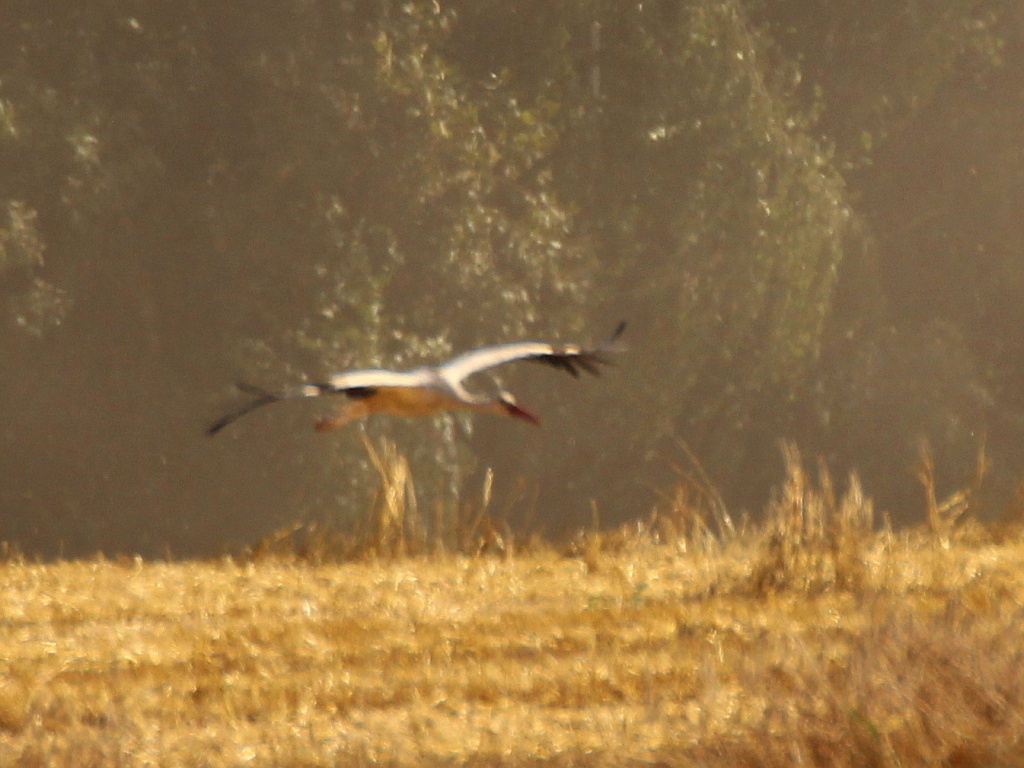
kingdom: Animalia
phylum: Chordata
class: Aves
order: Ciconiiformes
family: Ciconiidae
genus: Ciconia
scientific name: Ciconia ciconia
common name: White stork
